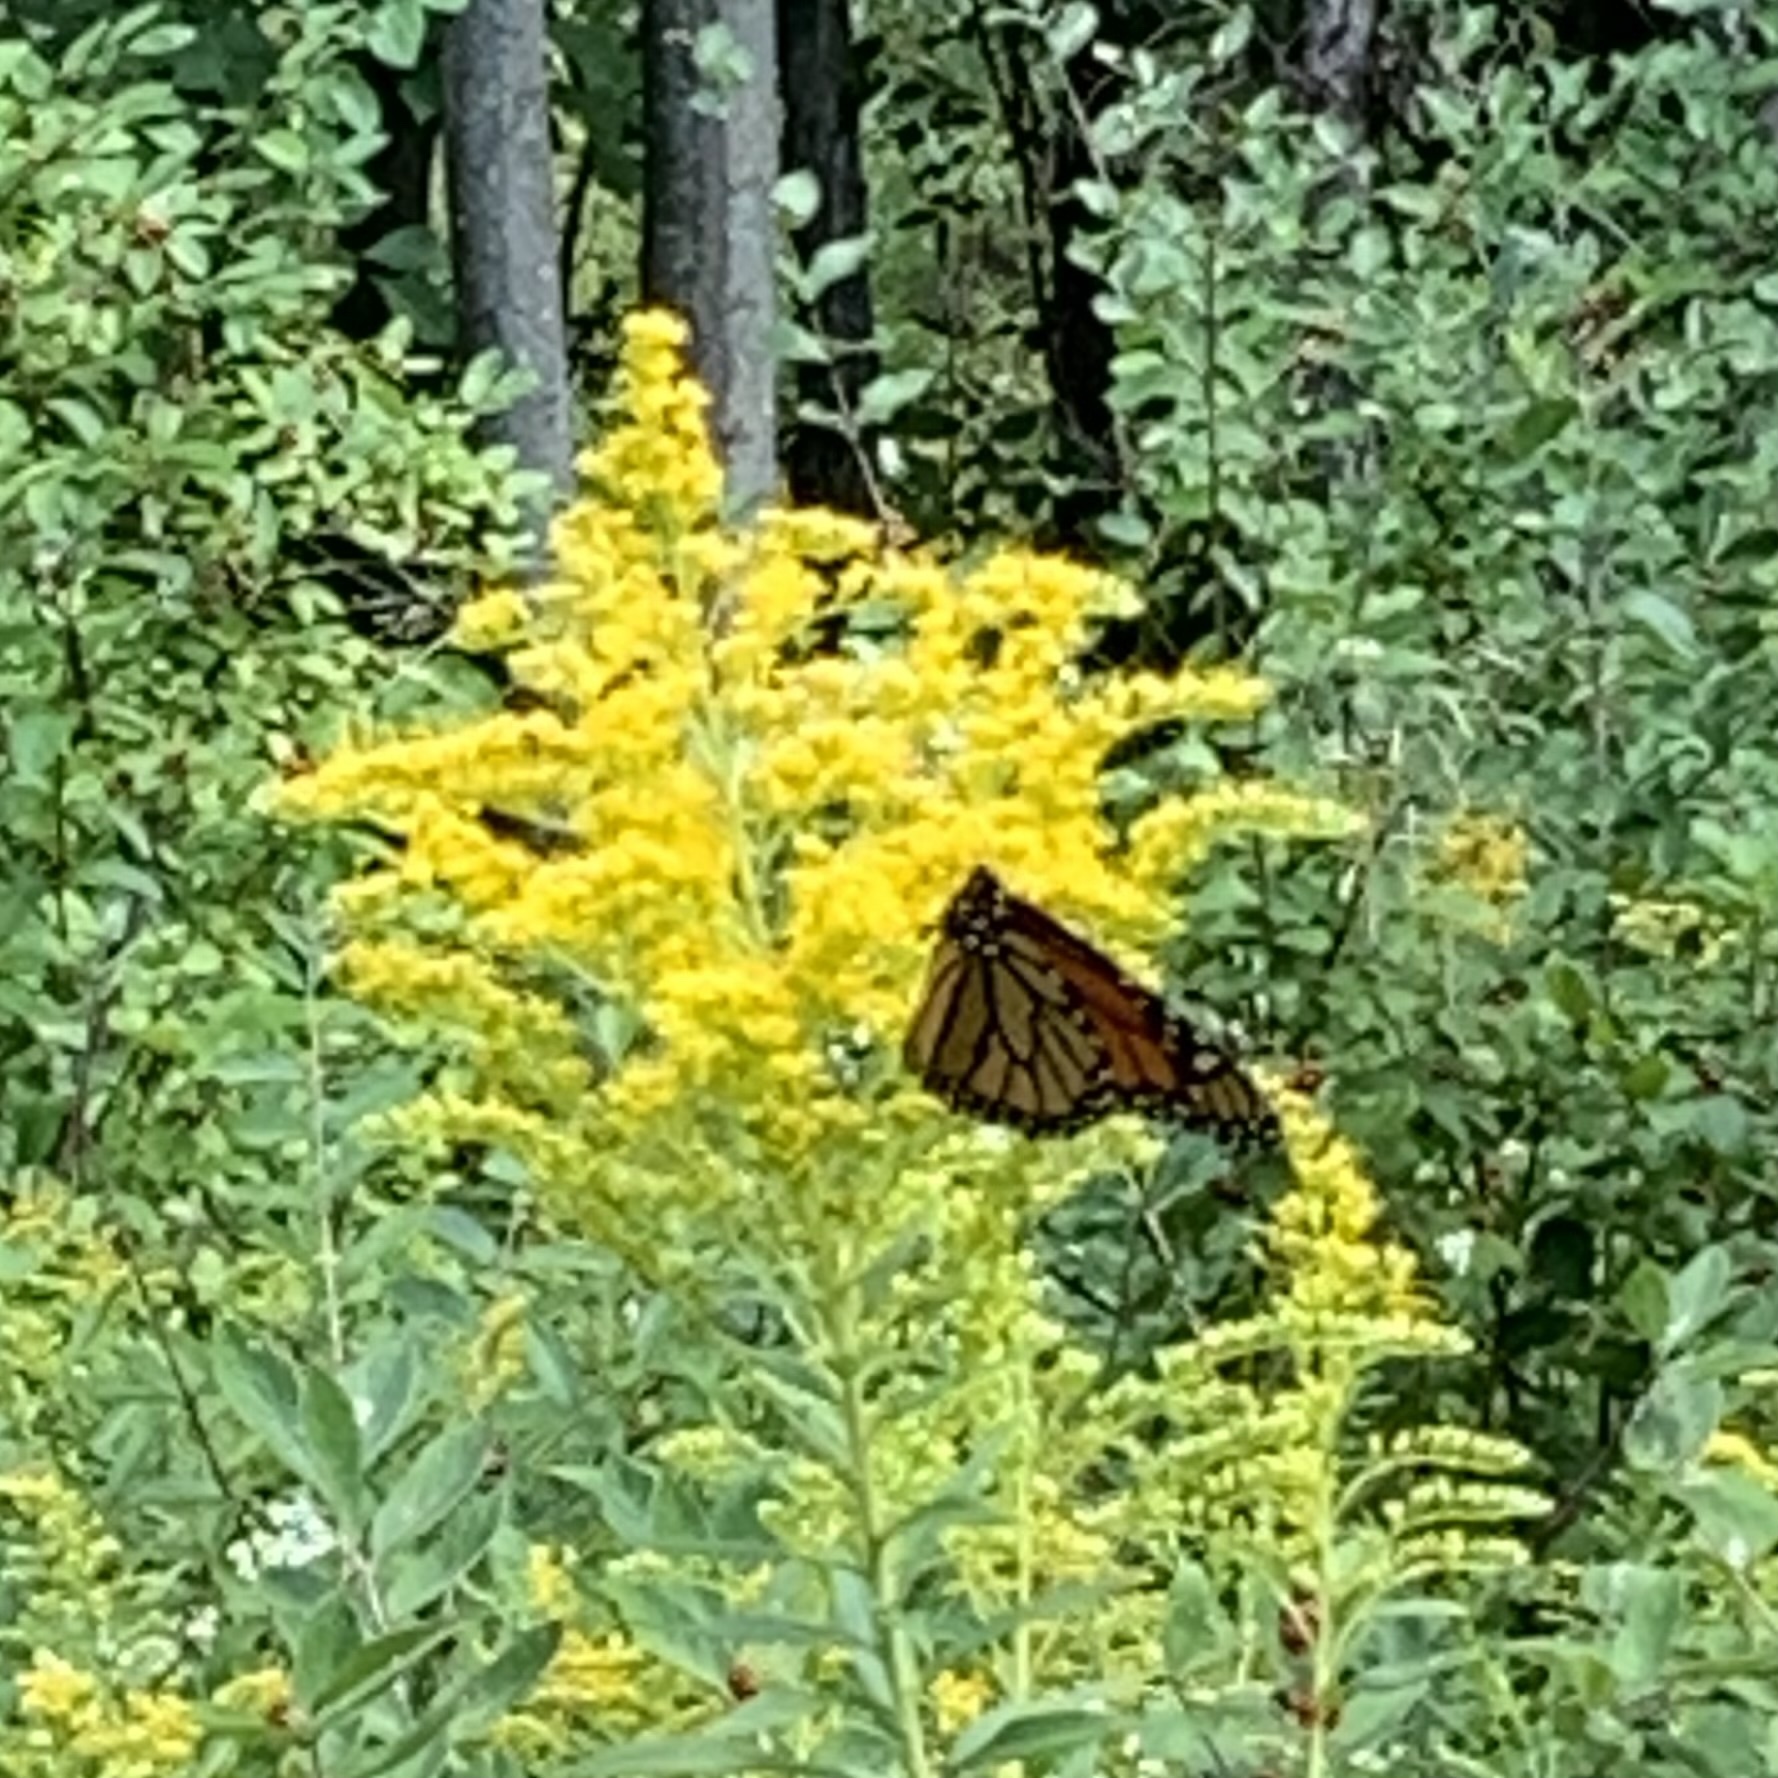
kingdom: Animalia
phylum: Arthropoda
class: Insecta
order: Lepidoptera
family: Nymphalidae
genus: Danaus
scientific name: Danaus plexippus
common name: Monarch
